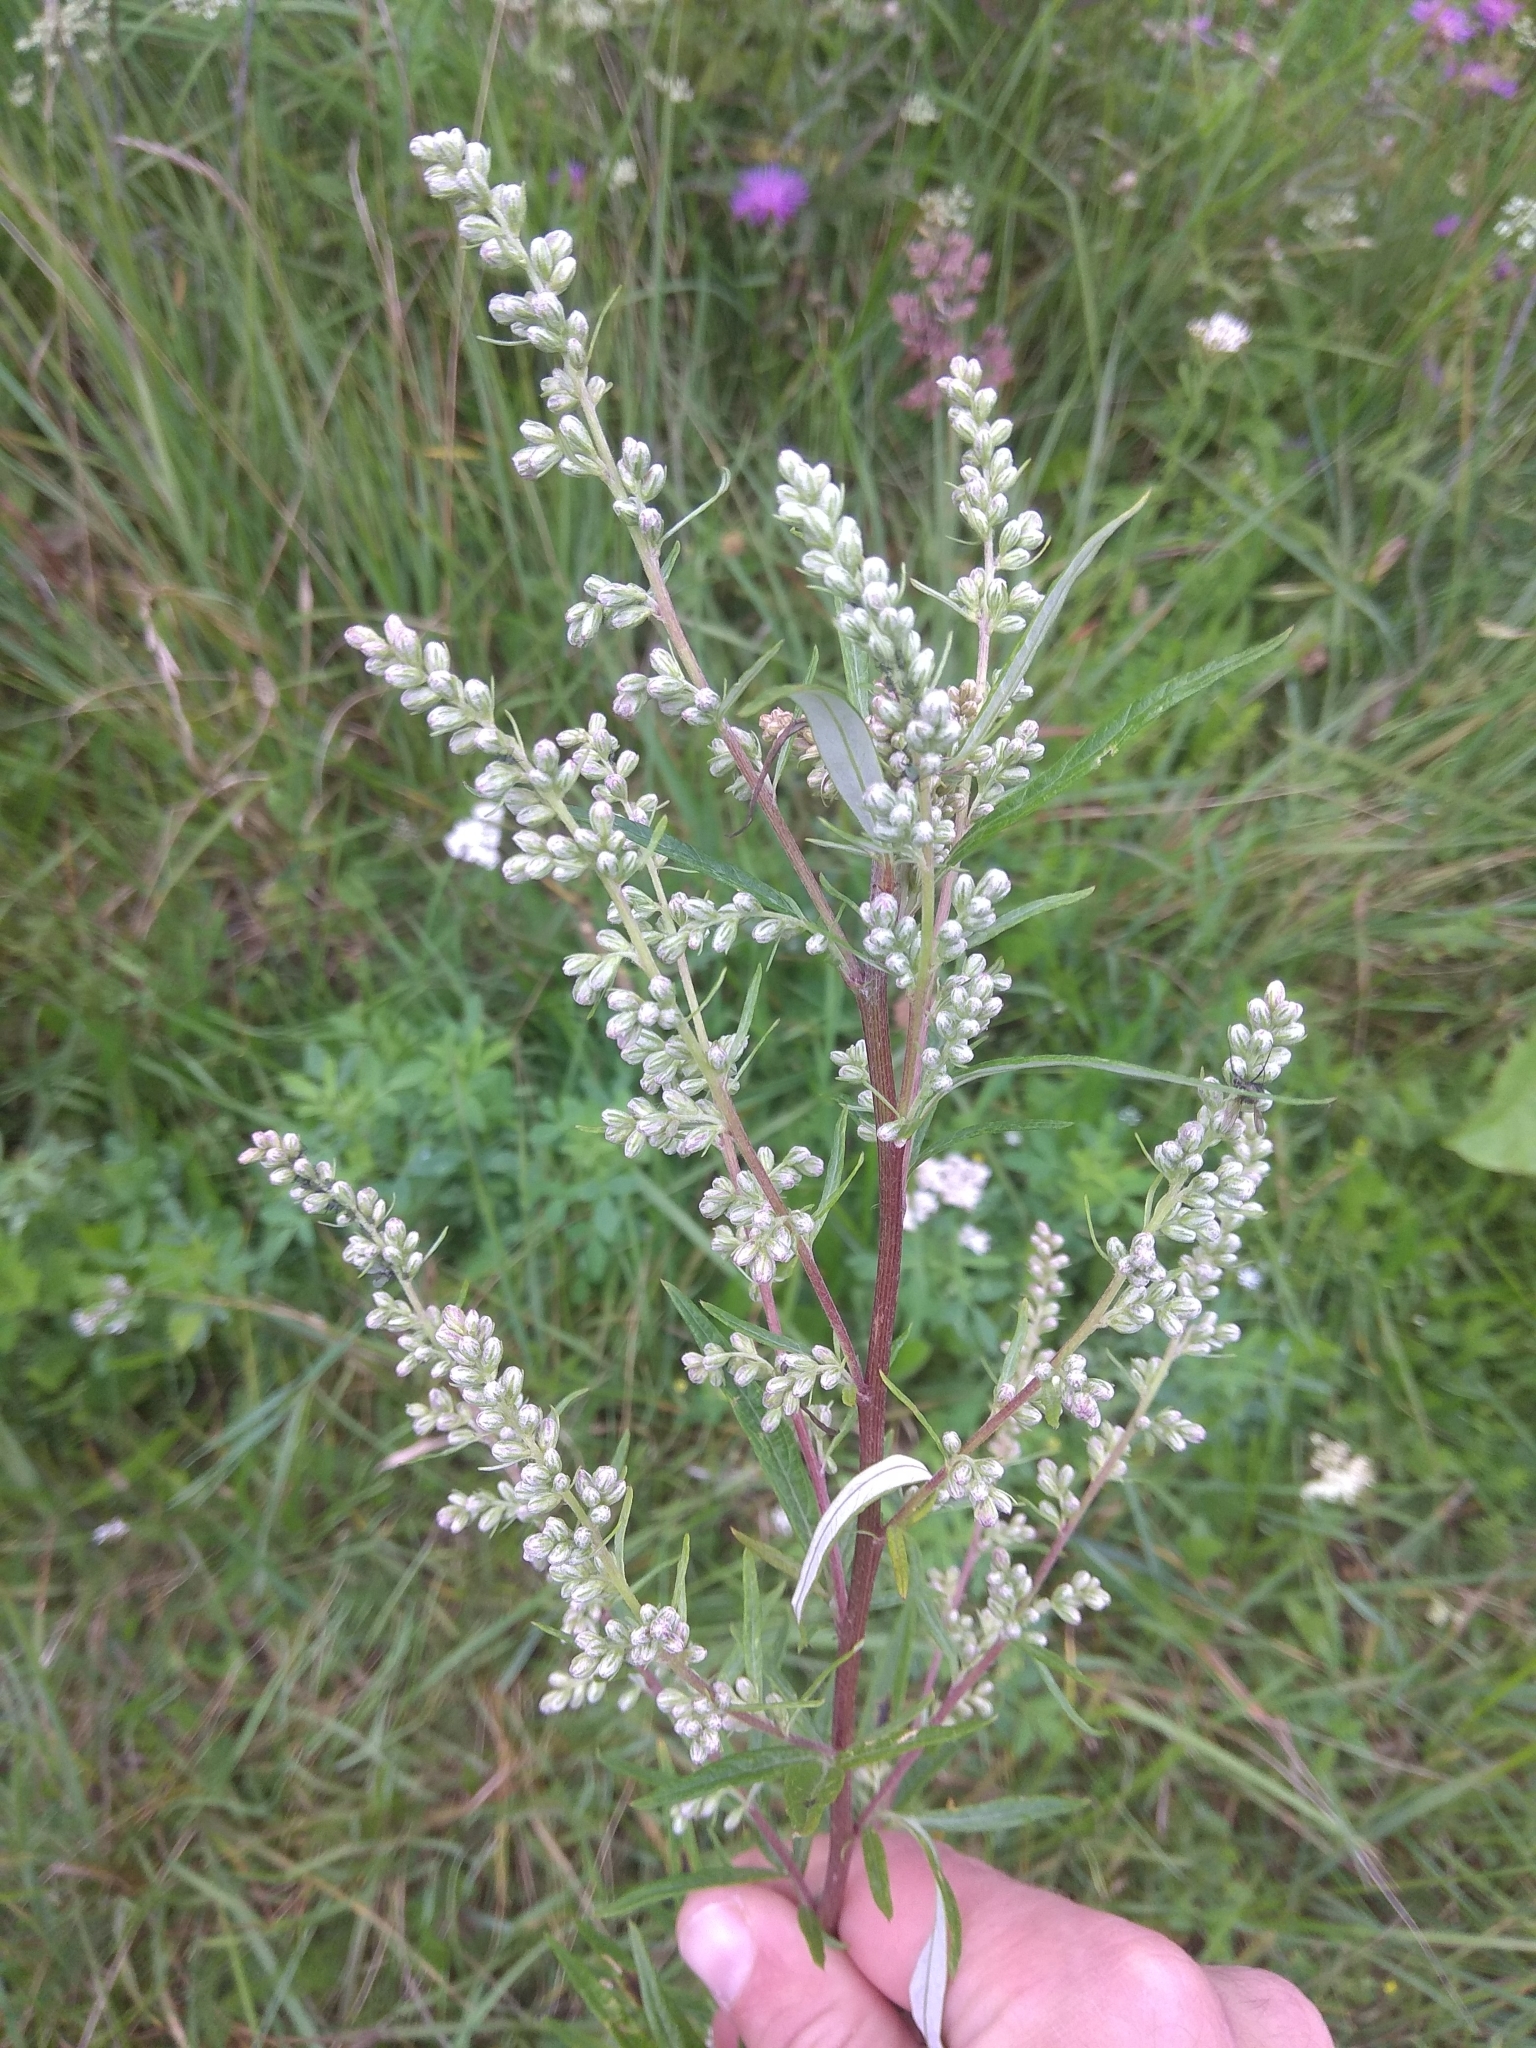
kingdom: Plantae
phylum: Tracheophyta
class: Magnoliopsida
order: Asterales
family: Asteraceae
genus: Artemisia
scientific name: Artemisia vulgaris
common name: Mugwort
